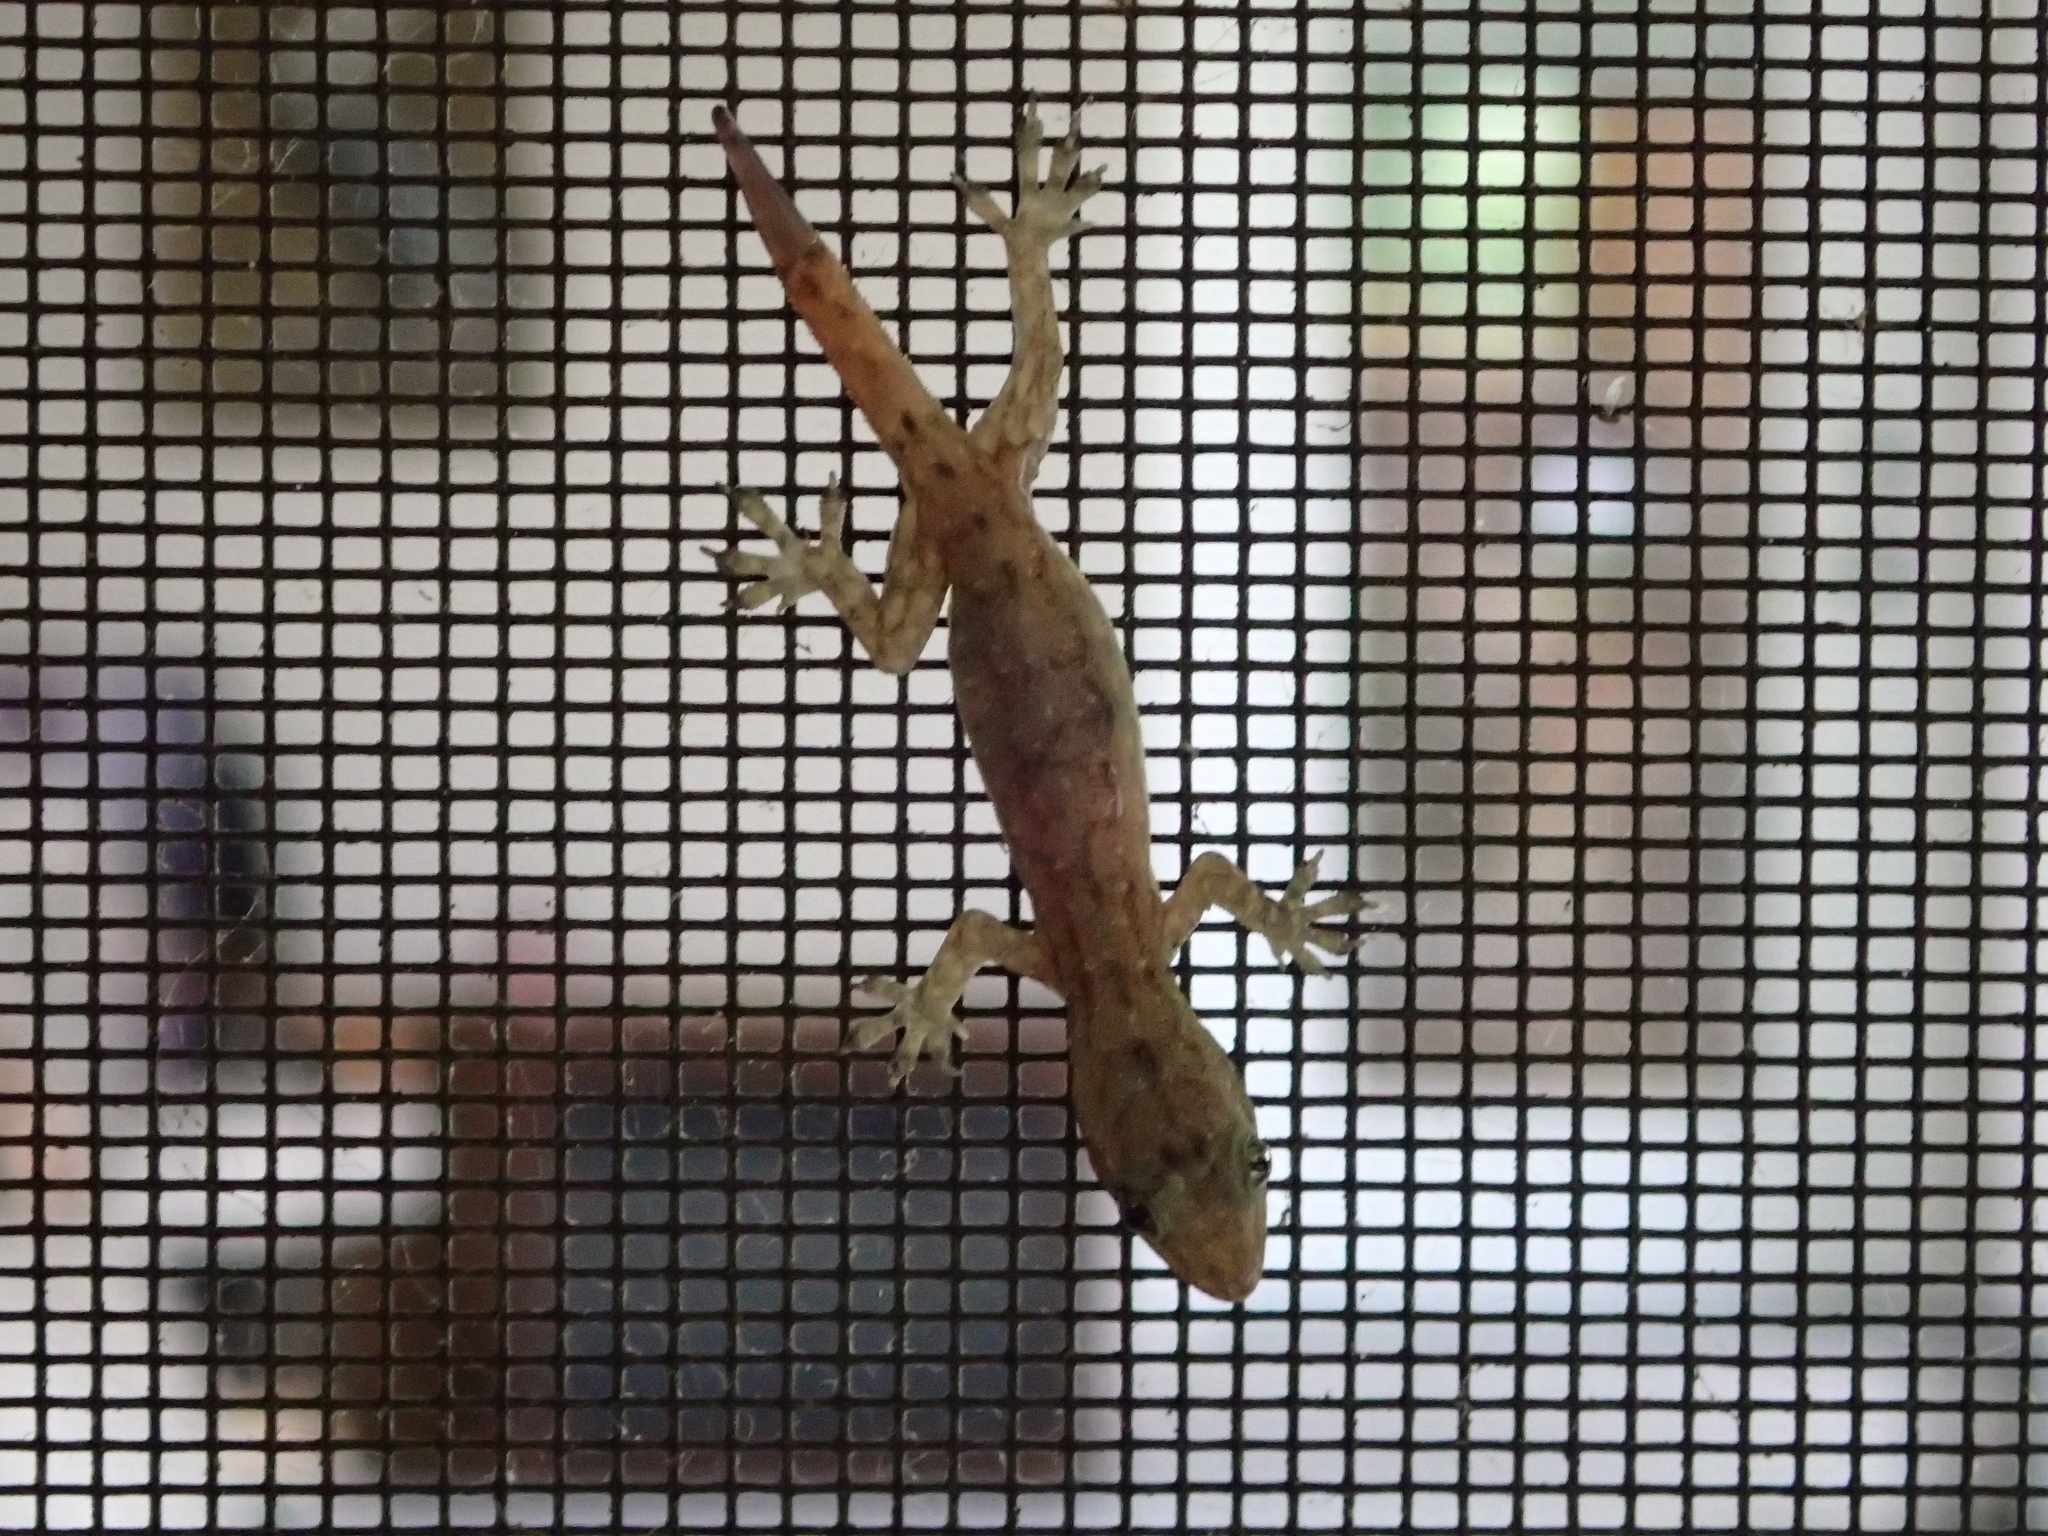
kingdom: Animalia
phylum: Chordata
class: Squamata
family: Gekkonidae
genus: Hemidactylus
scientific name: Hemidactylus garnotii
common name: Indo-pacific gecko
